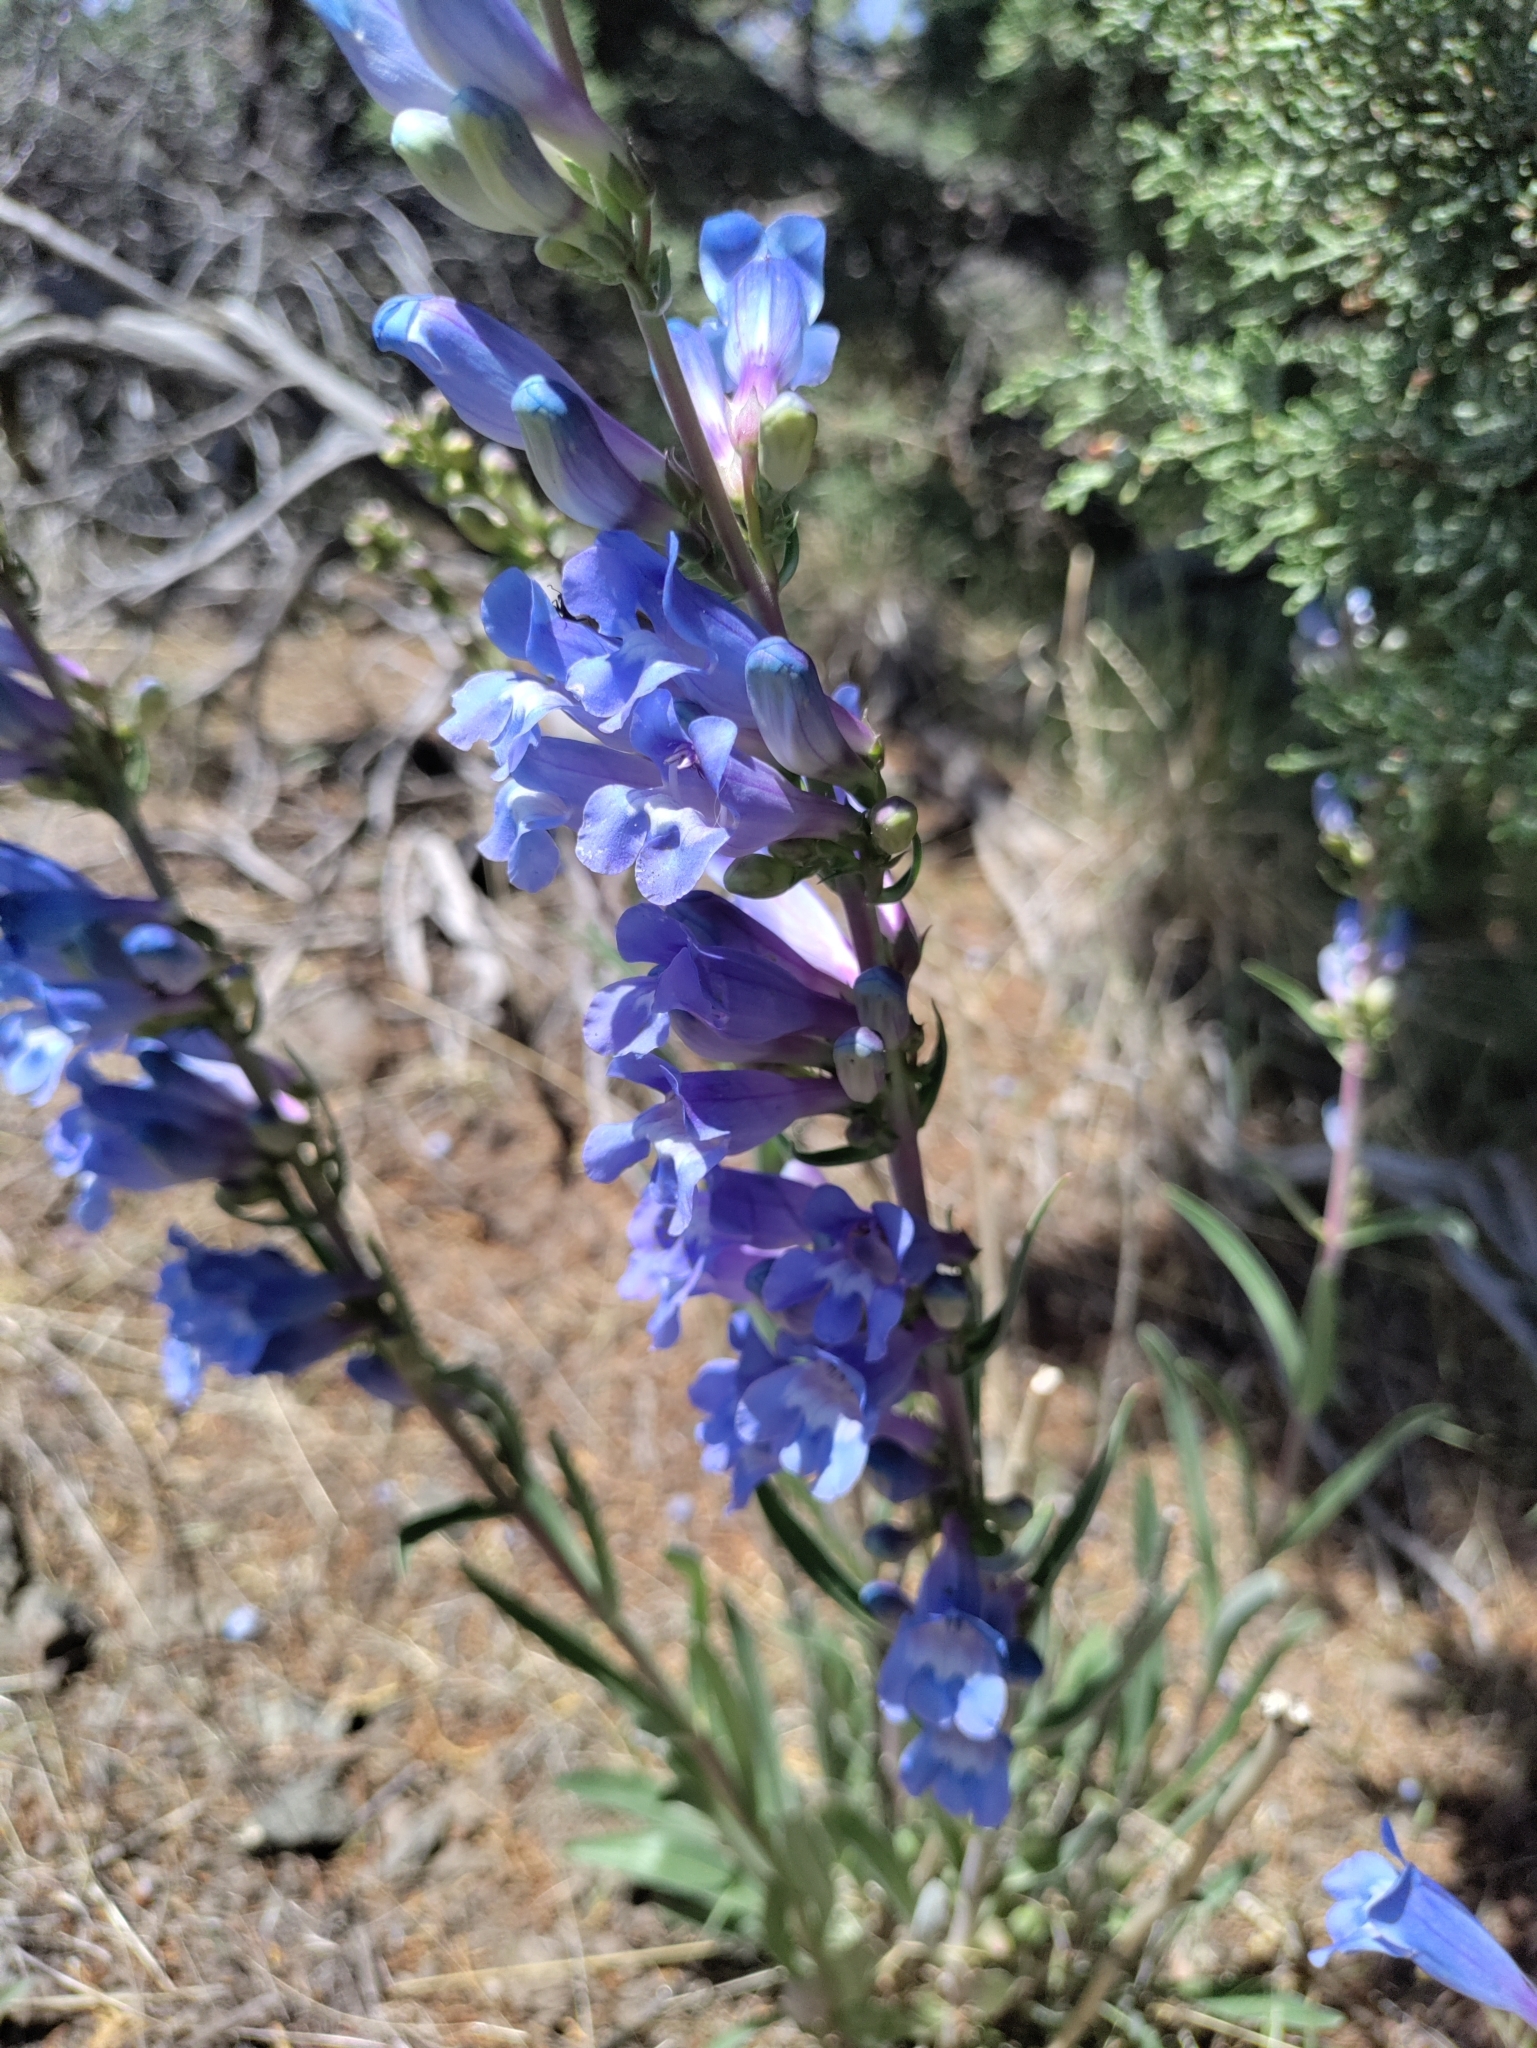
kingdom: Plantae
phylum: Tracheophyta
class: Magnoliopsida
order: Lamiales
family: Plantaginaceae
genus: Penstemon
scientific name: Penstemon speciosus
